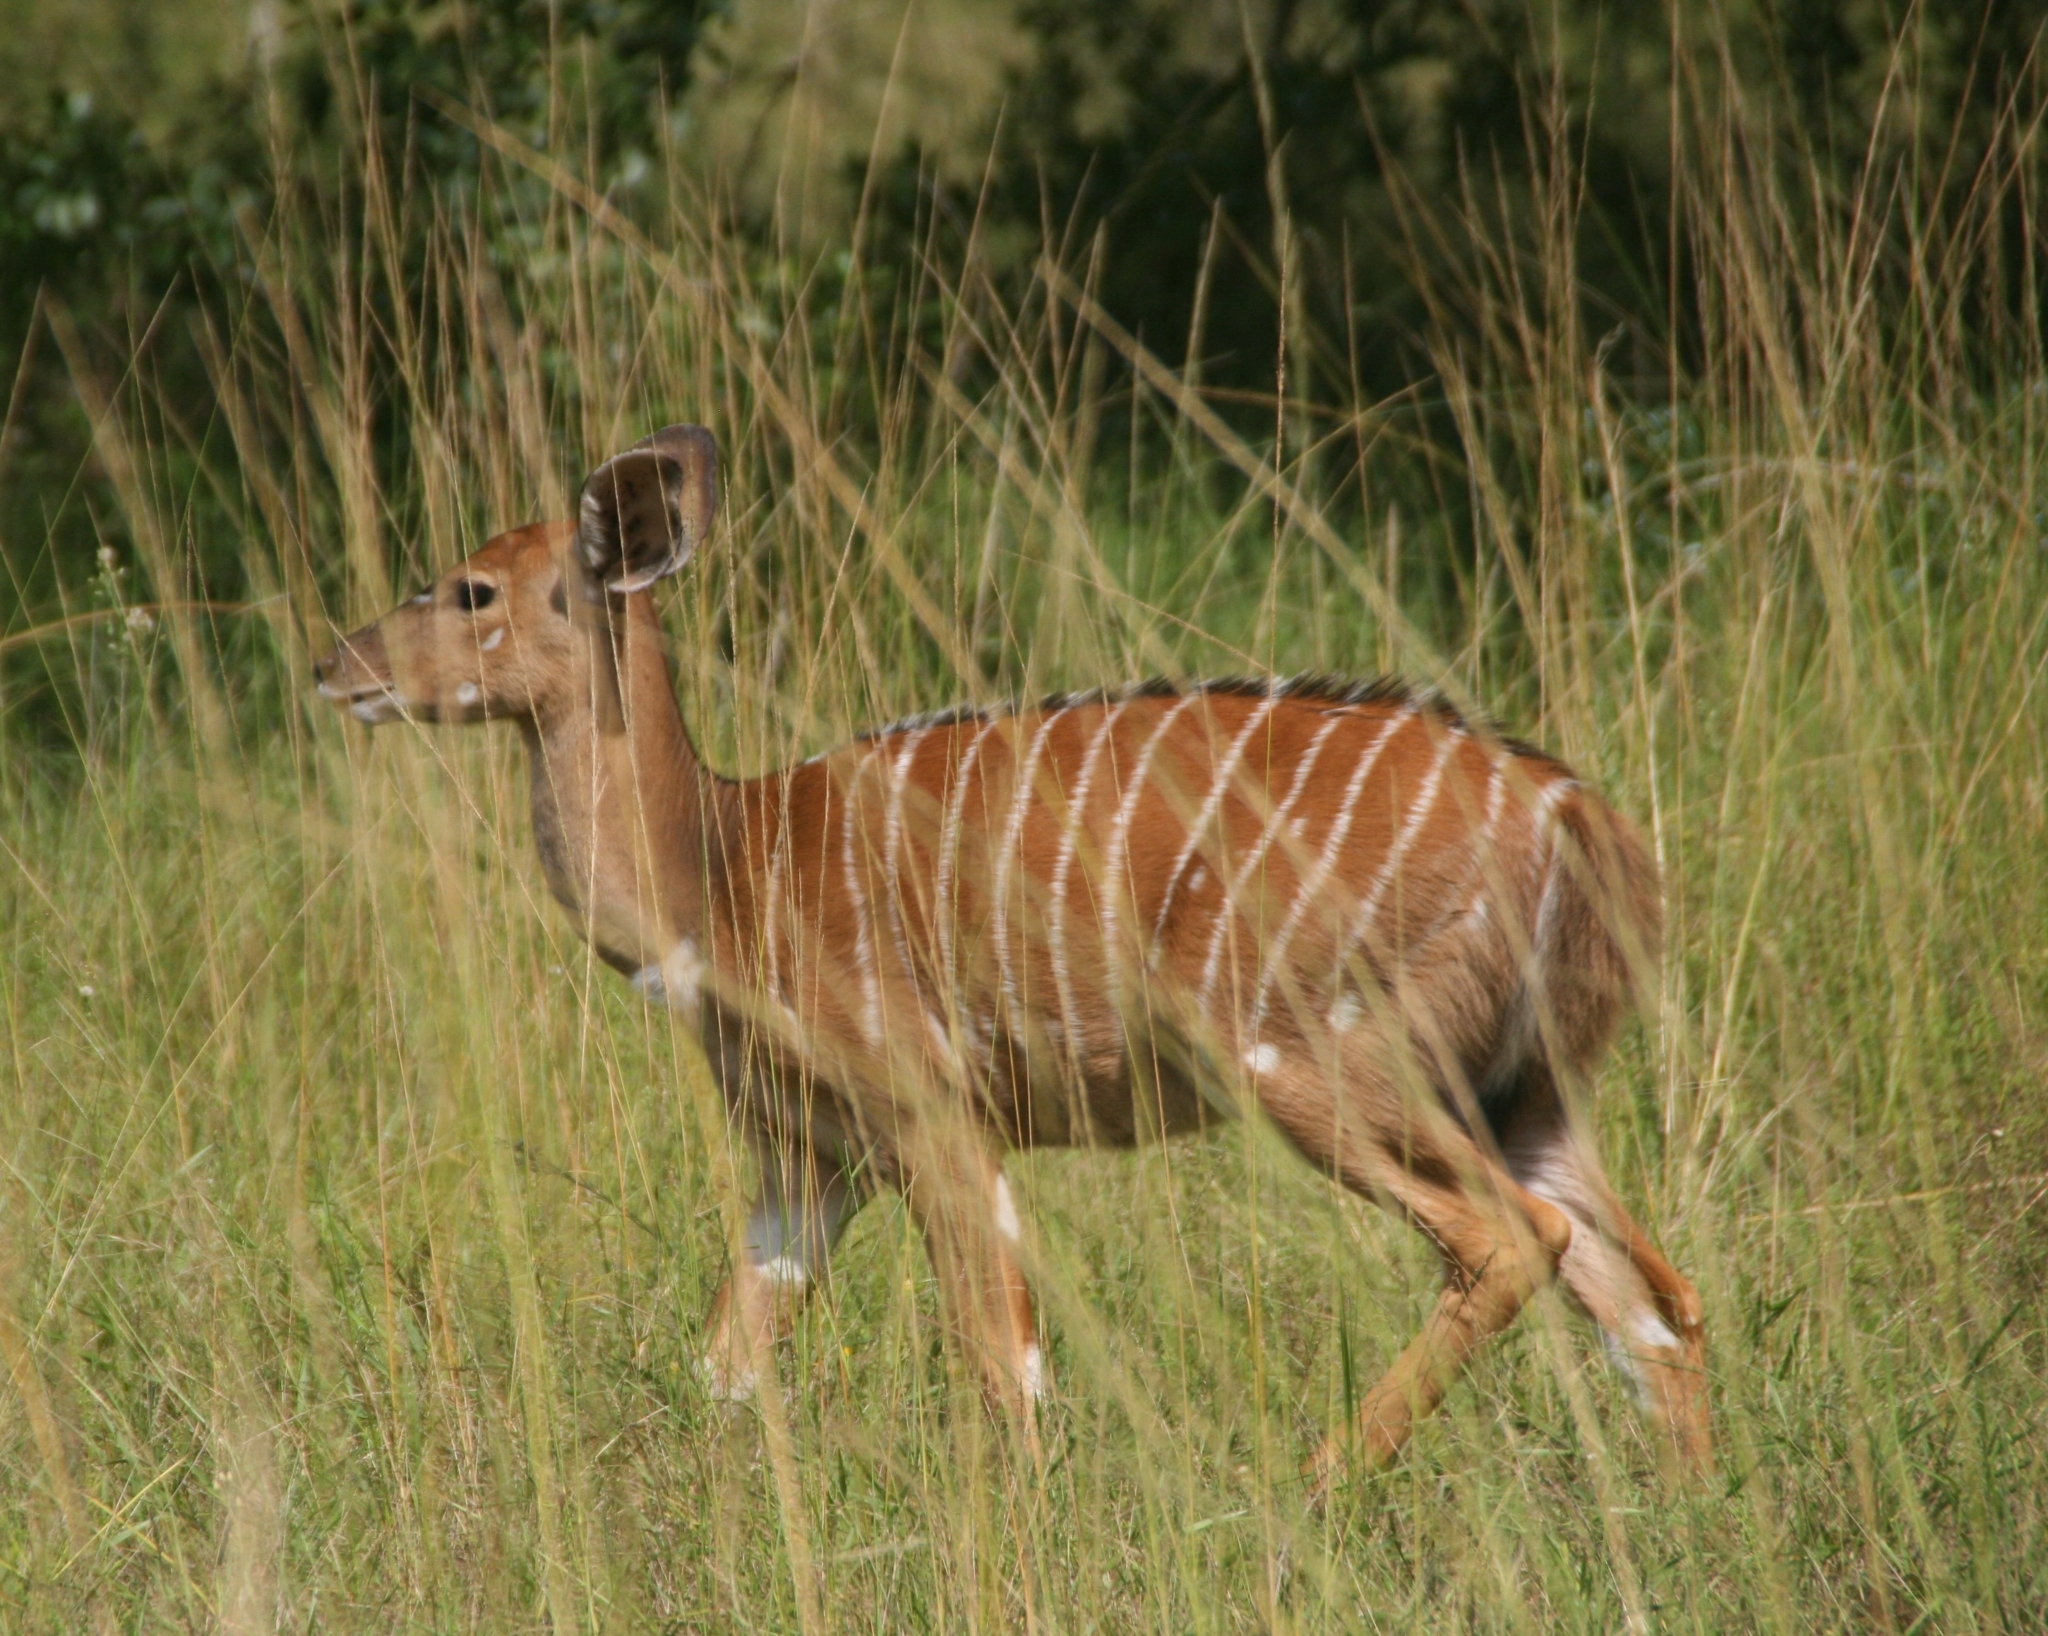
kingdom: Animalia
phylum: Chordata
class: Mammalia
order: Artiodactyla
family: Bovidae
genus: Tragelaphus
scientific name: Tragelaphus angasii
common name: Nyala
